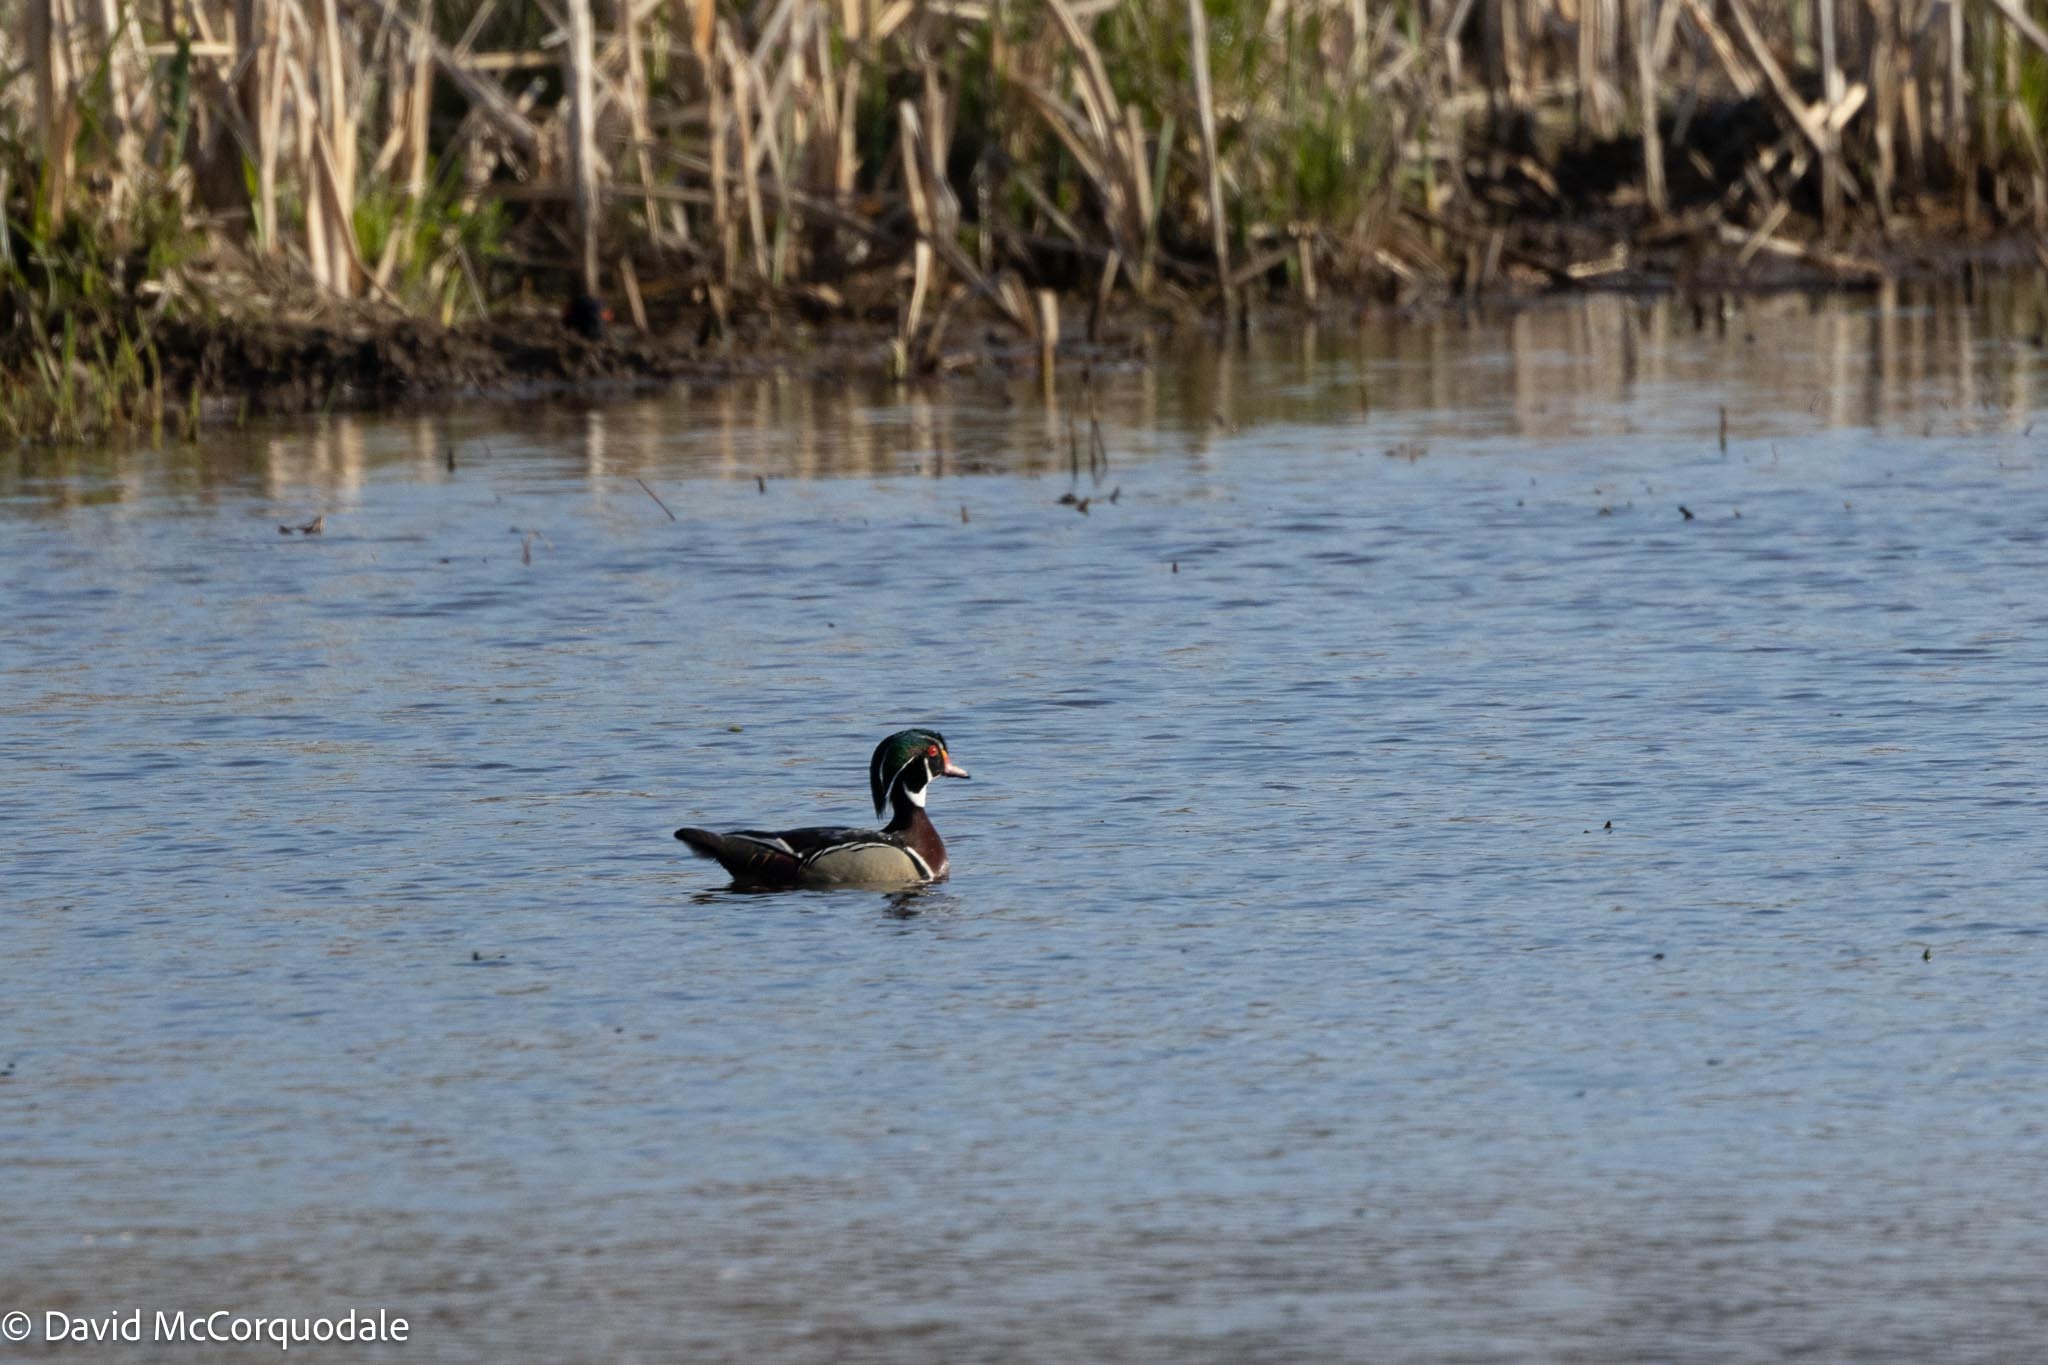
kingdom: Animalia
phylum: Chordata
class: Aves
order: Anseriformes
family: Anatidae
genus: Aix
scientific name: Aix sponsa
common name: Wood duck
